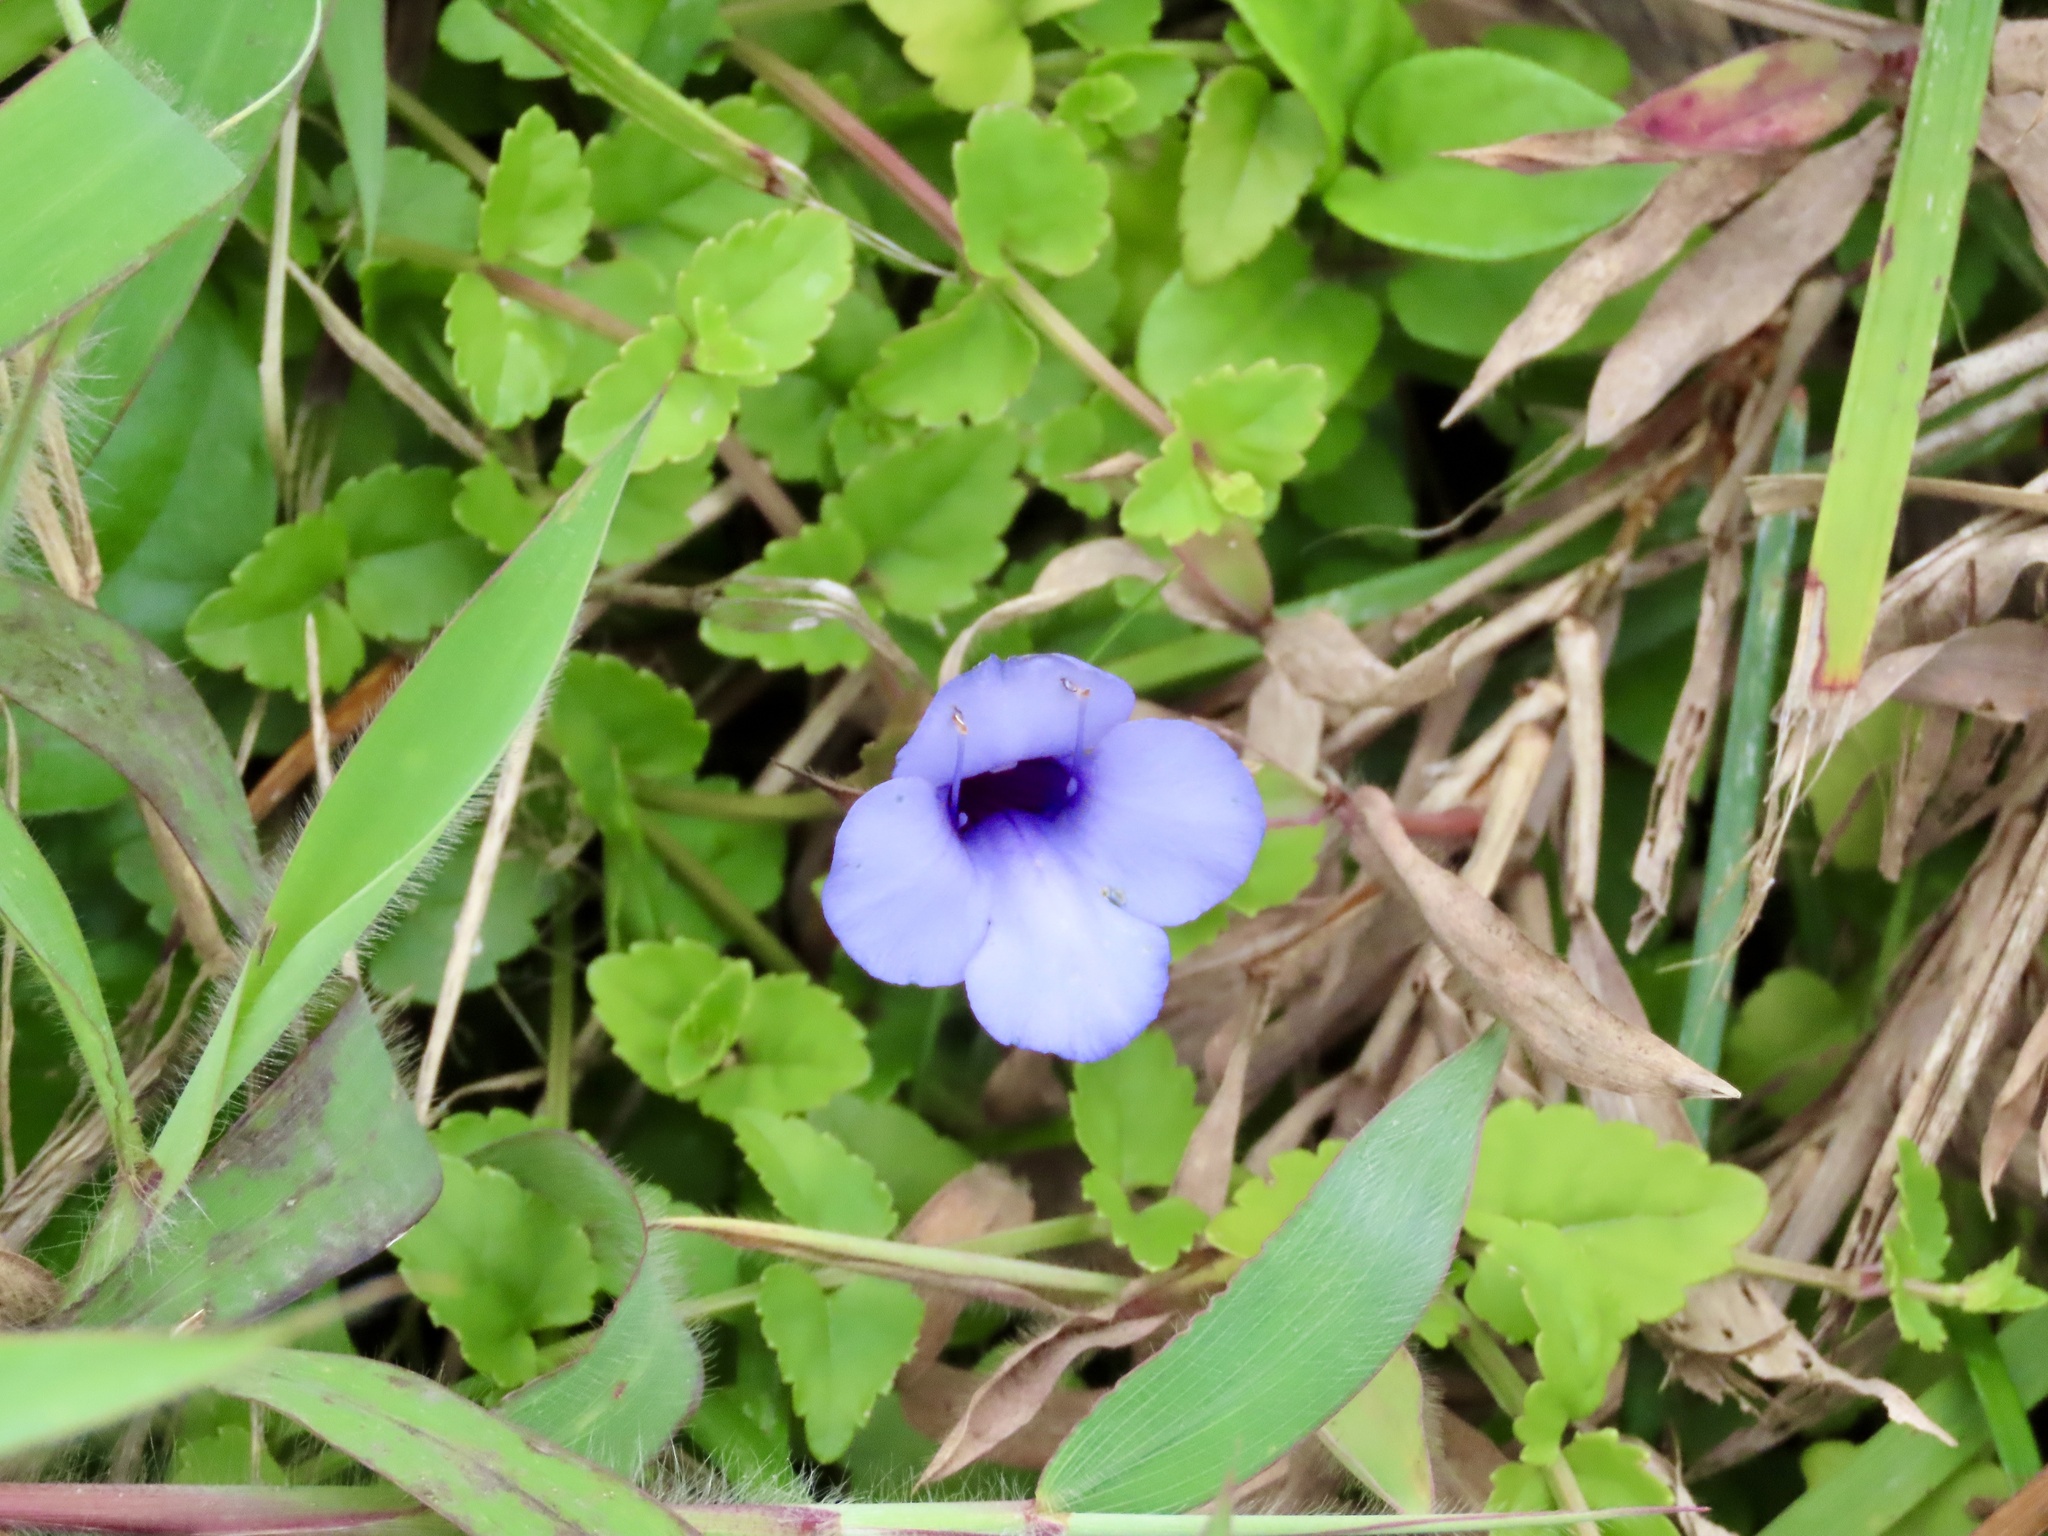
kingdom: Plantae
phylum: Tracheophyta
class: Magnoliopsida
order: Lamiales
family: Linderniaceae
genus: Torenia
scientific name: Torenia concolor
